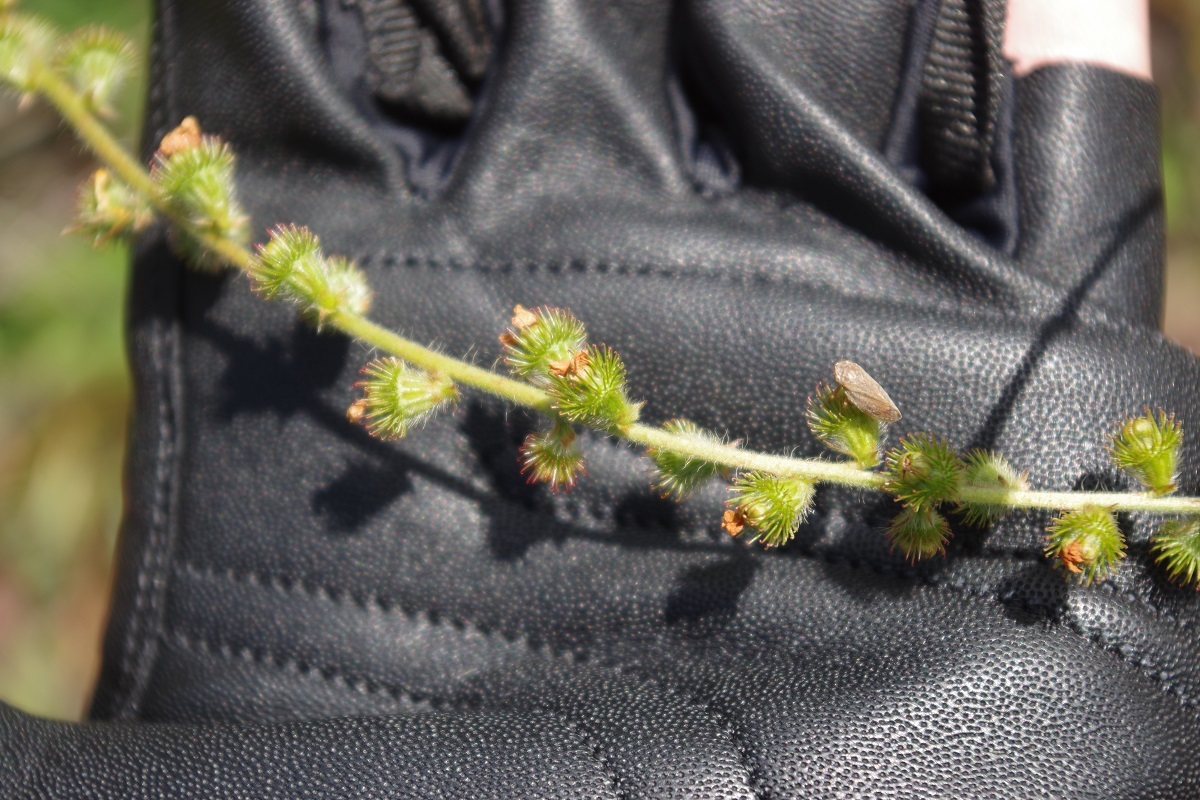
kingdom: Plantae
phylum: Tracheophyta
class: Magnoliopsida
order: Rosales
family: Rosaceae
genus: Agrimonia
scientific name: Agrimonia eupatoria
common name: Agrimony
